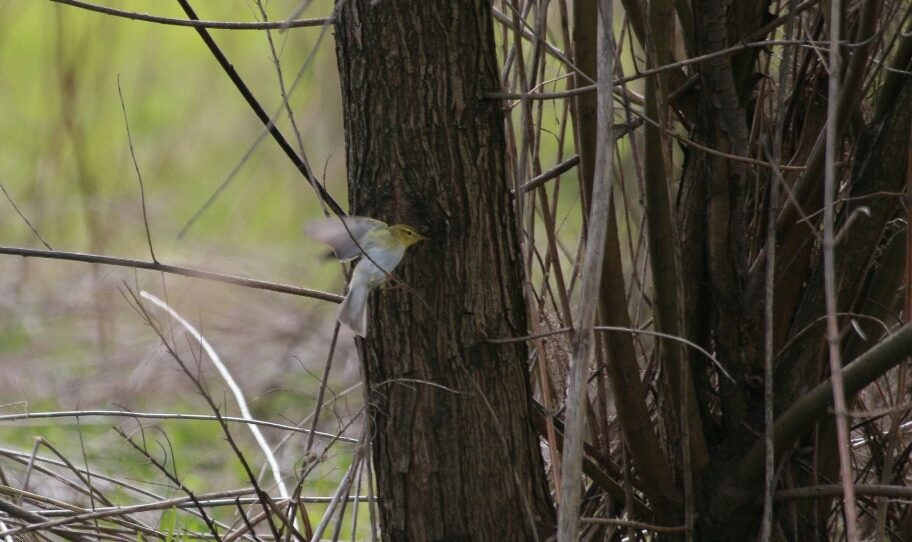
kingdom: Animalia
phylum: Chordata
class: Aves
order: Passeriformes
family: Phylloscopidae
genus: Phylloscopus
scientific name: Phylloscopus sibillatrix
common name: Wood warbler
